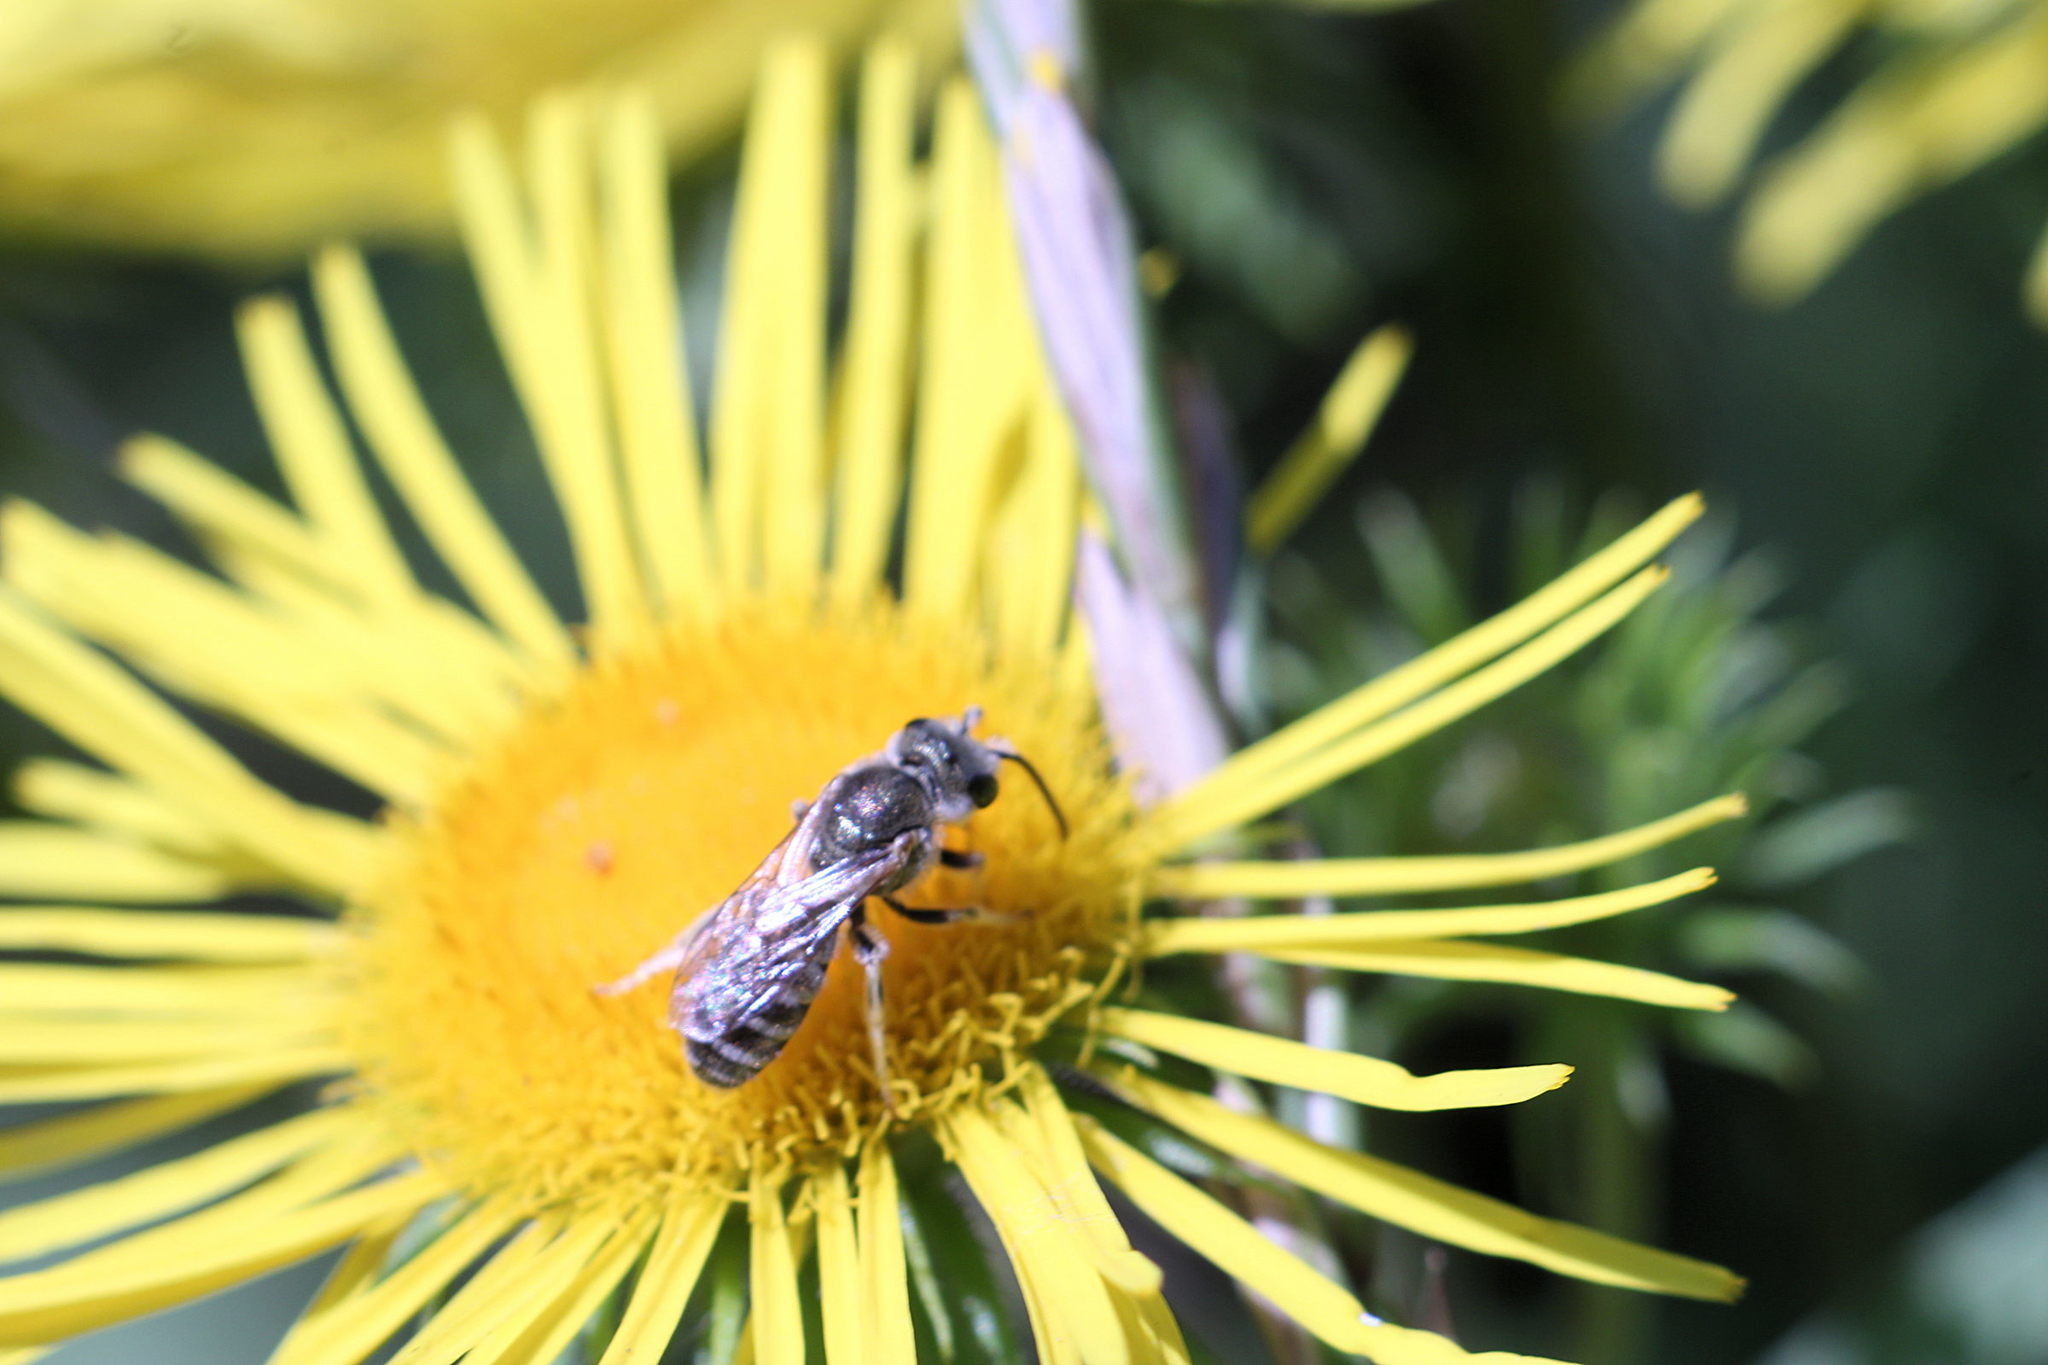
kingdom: Animalia
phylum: Arthropoda
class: Insecta
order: Hymenoptera
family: Halictidae
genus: Halictus
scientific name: Halictus subauratus
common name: Golden furrow bee
